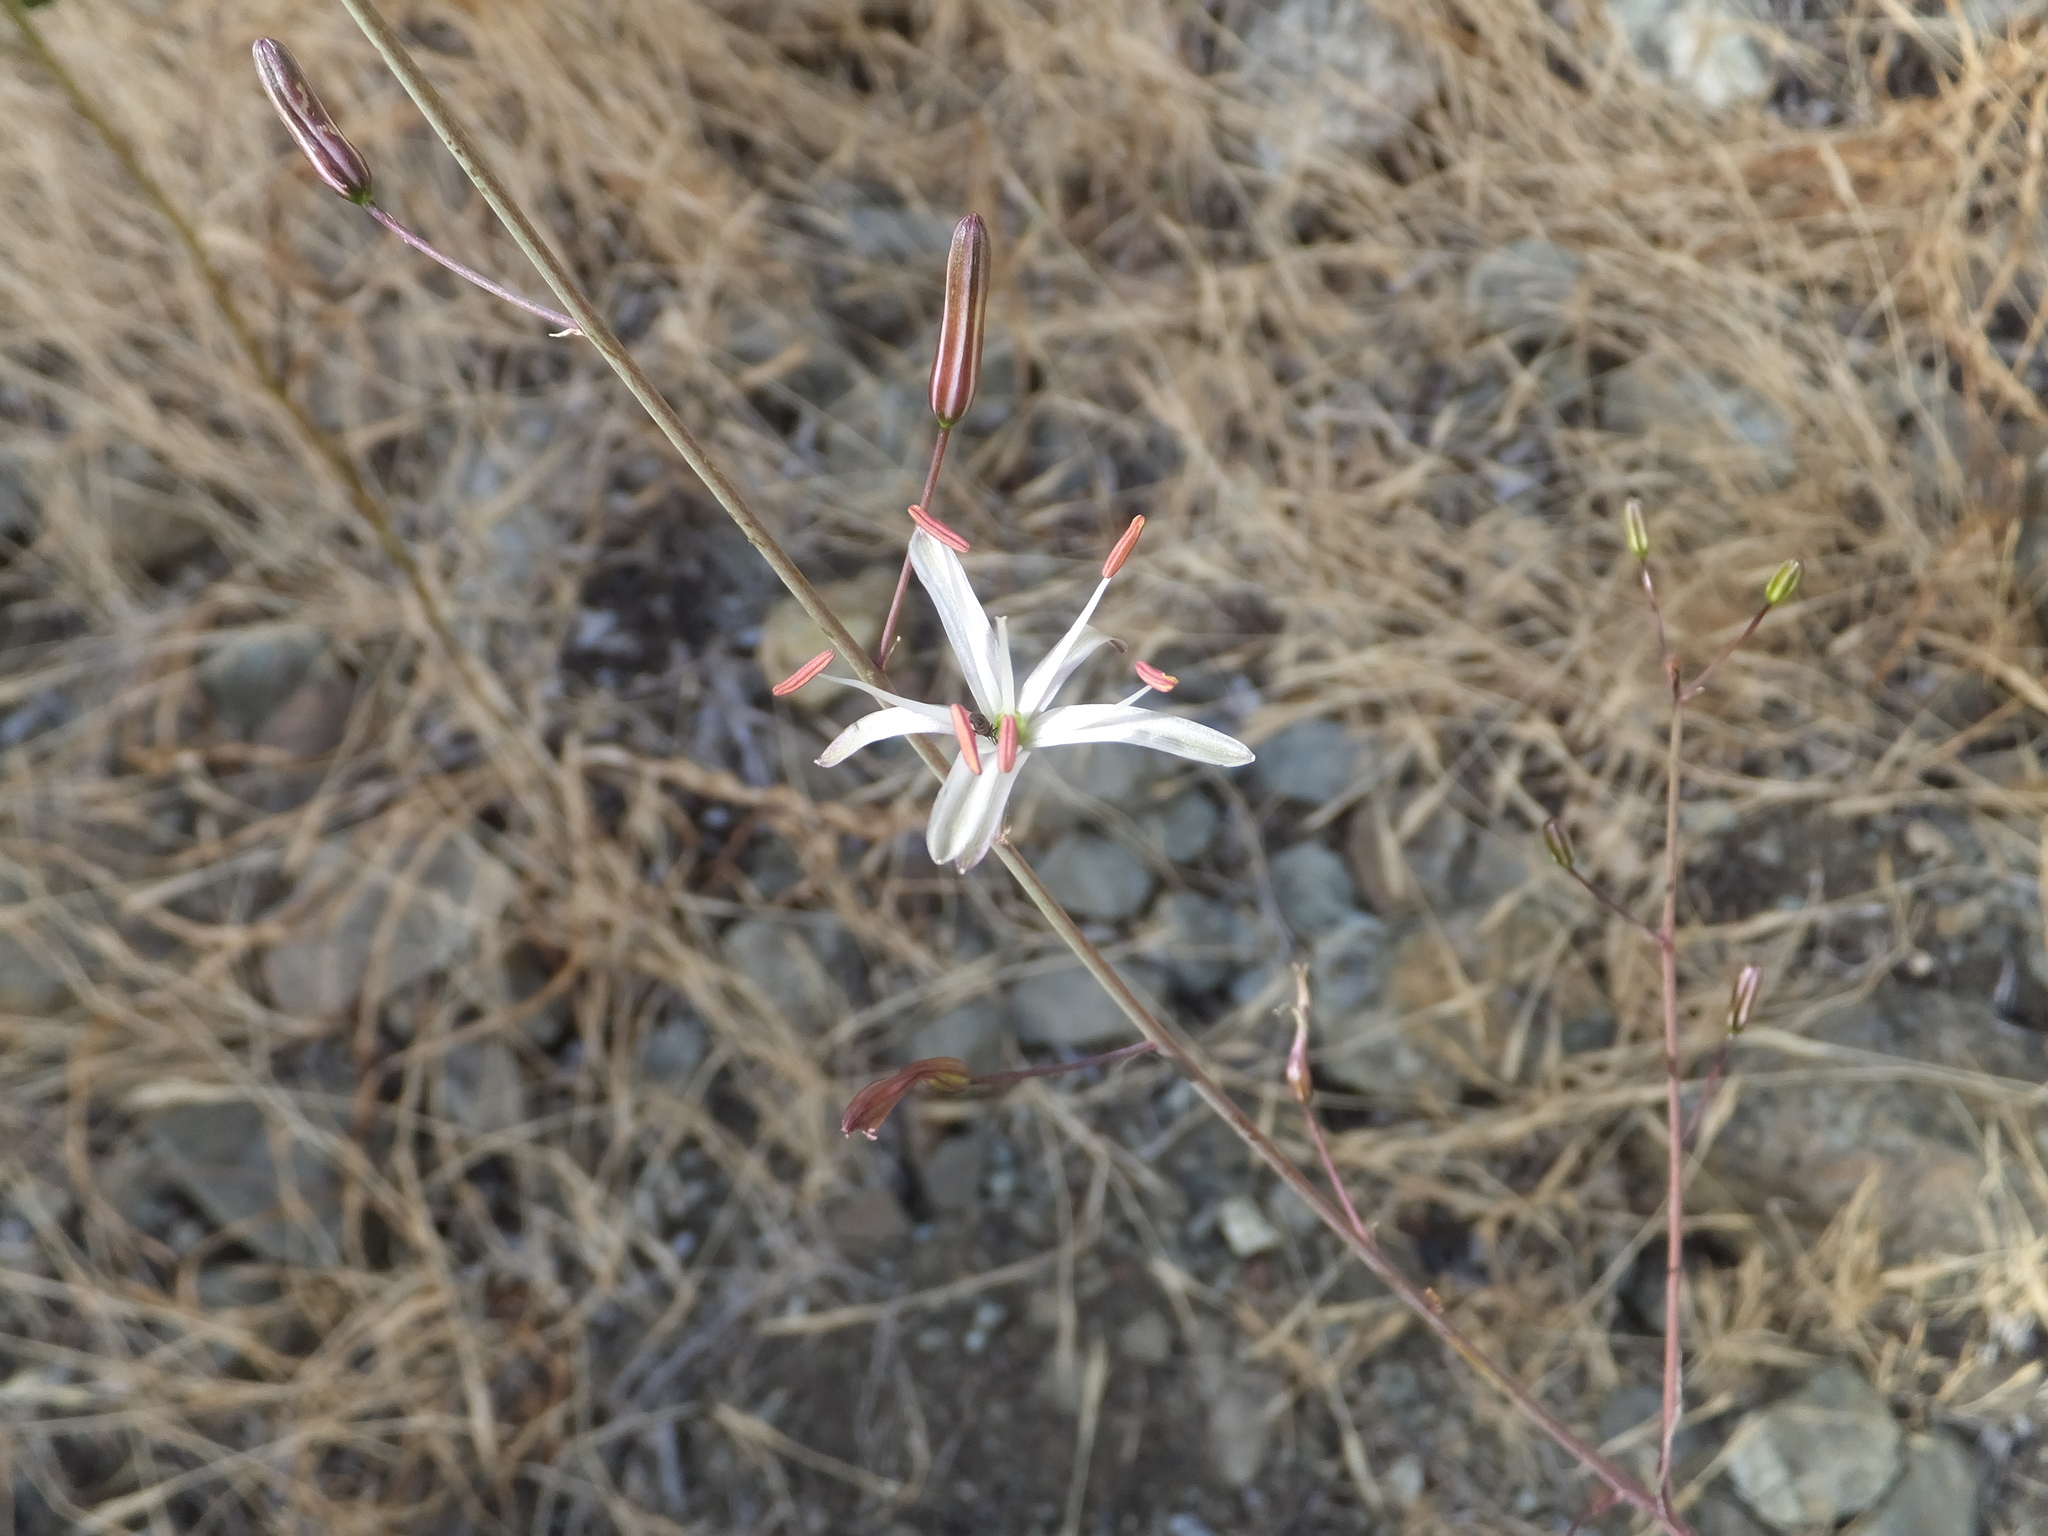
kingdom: Plantae
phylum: Tracheophyta
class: Liliopsida
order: Asparagales
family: Asparagaceae
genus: Chlorogalum
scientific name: Chlorogalum pomeridianum
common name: Amole
